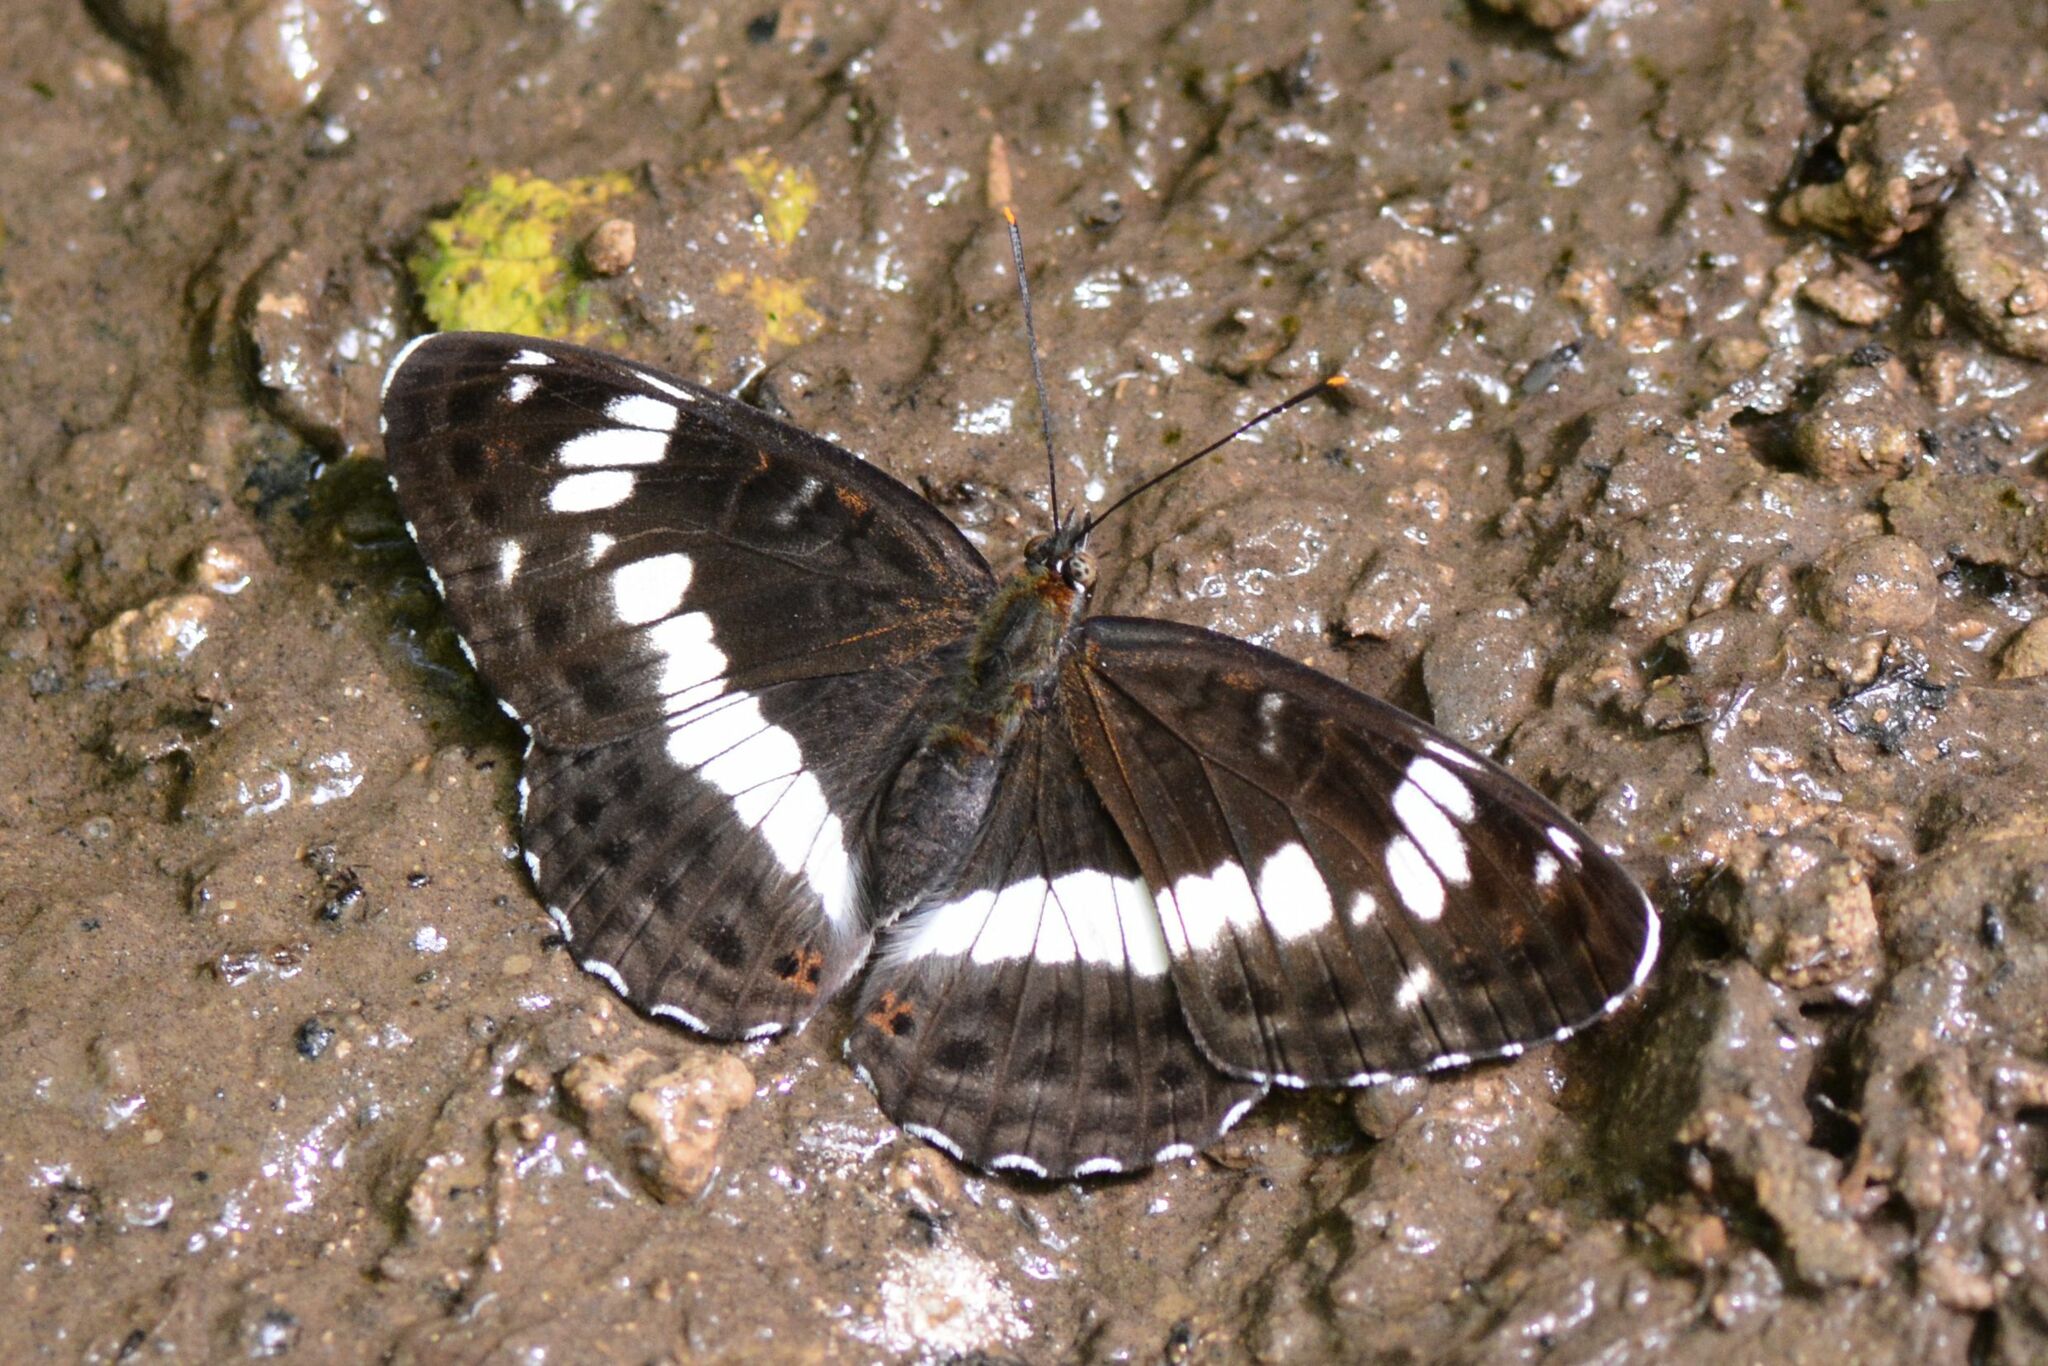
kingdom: Animalia
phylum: Arthropoda
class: Insecta
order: Lepidoptera
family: Nymphalidae
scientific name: Nymphalidae
